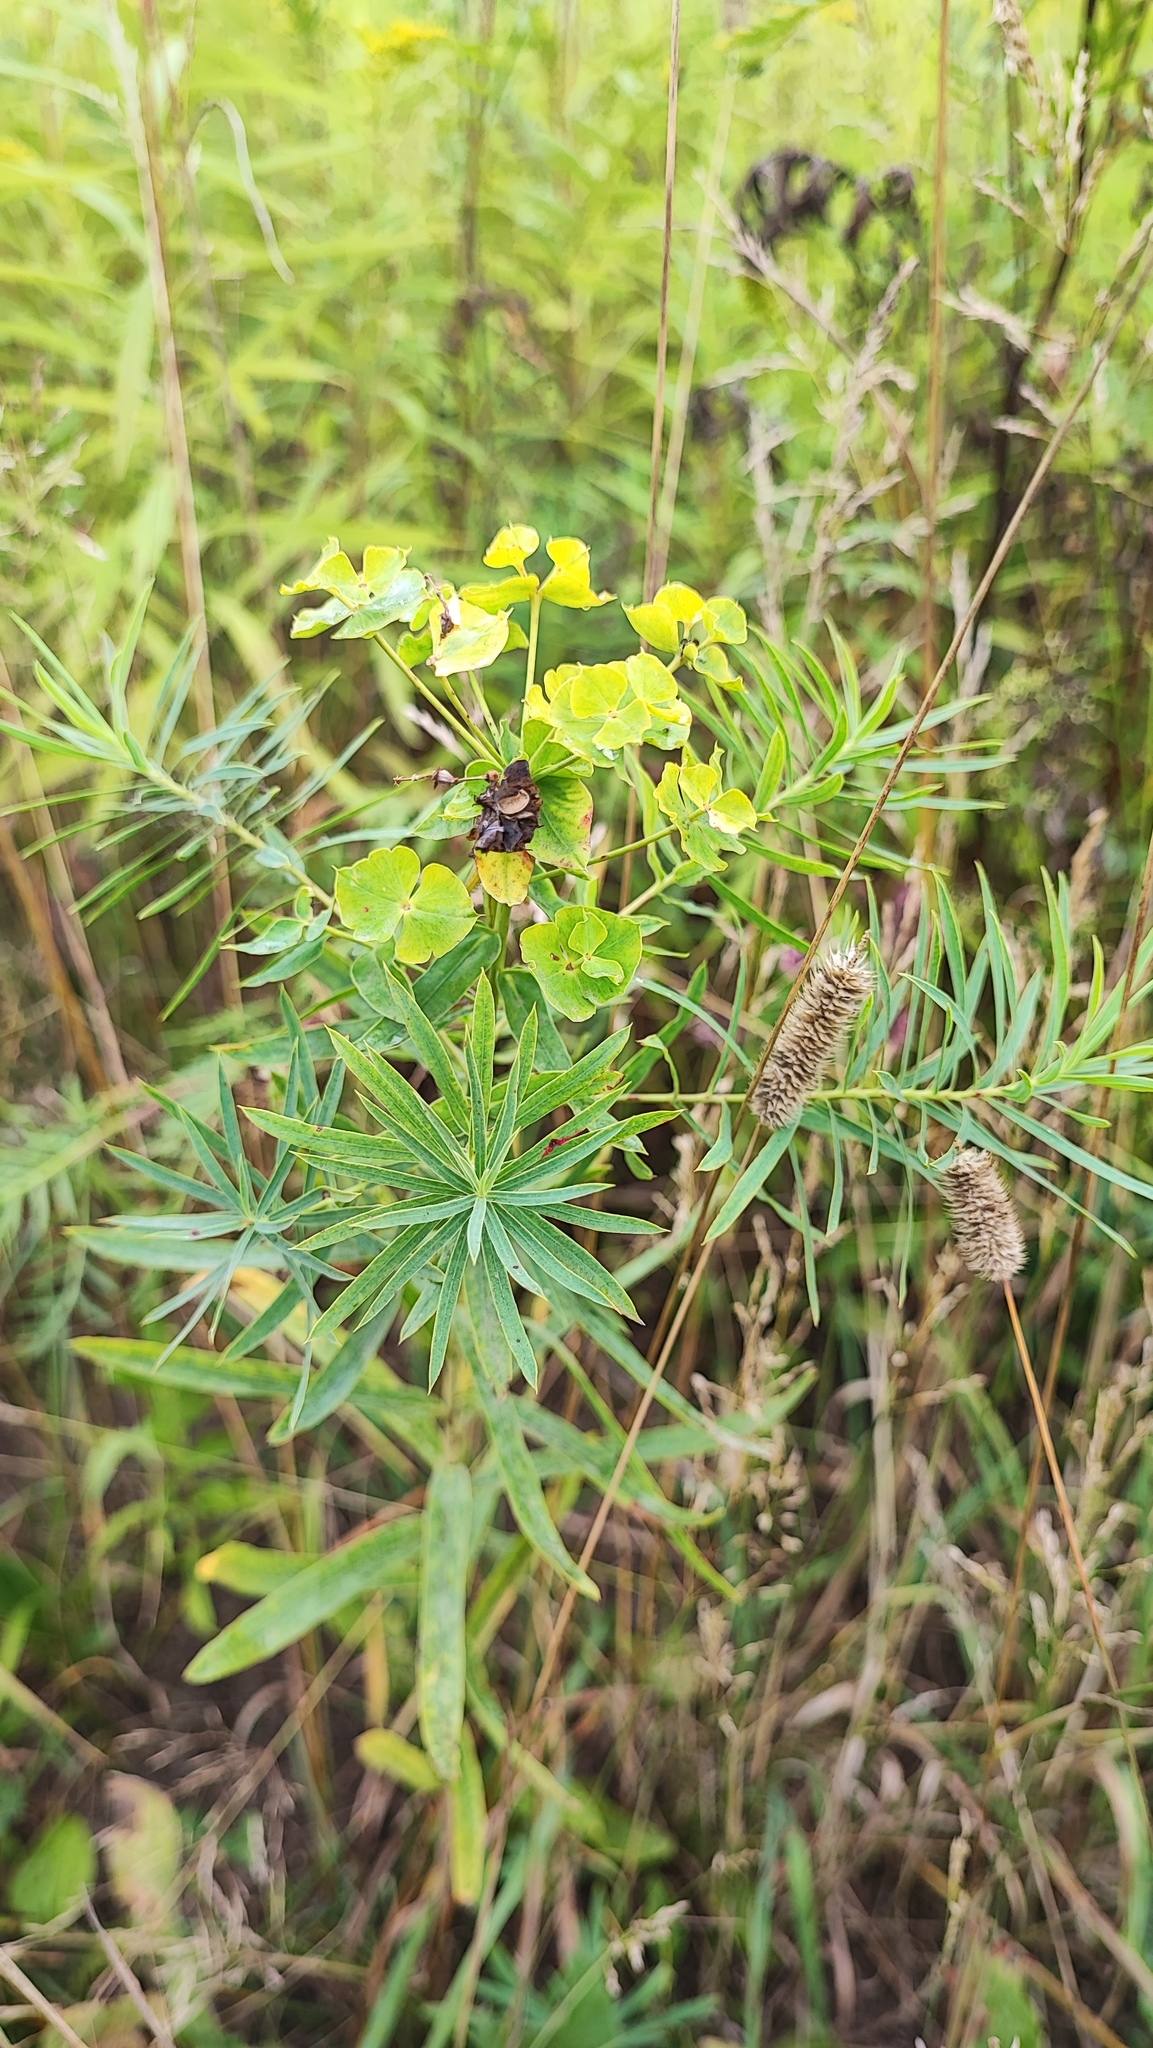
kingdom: Plantae
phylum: Tracheophyta
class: Magnoliopsida
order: Malpighiales
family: Euphorbiaceae
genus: Euphorbia
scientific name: Euphorbia virgata
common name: Leafy spurge
